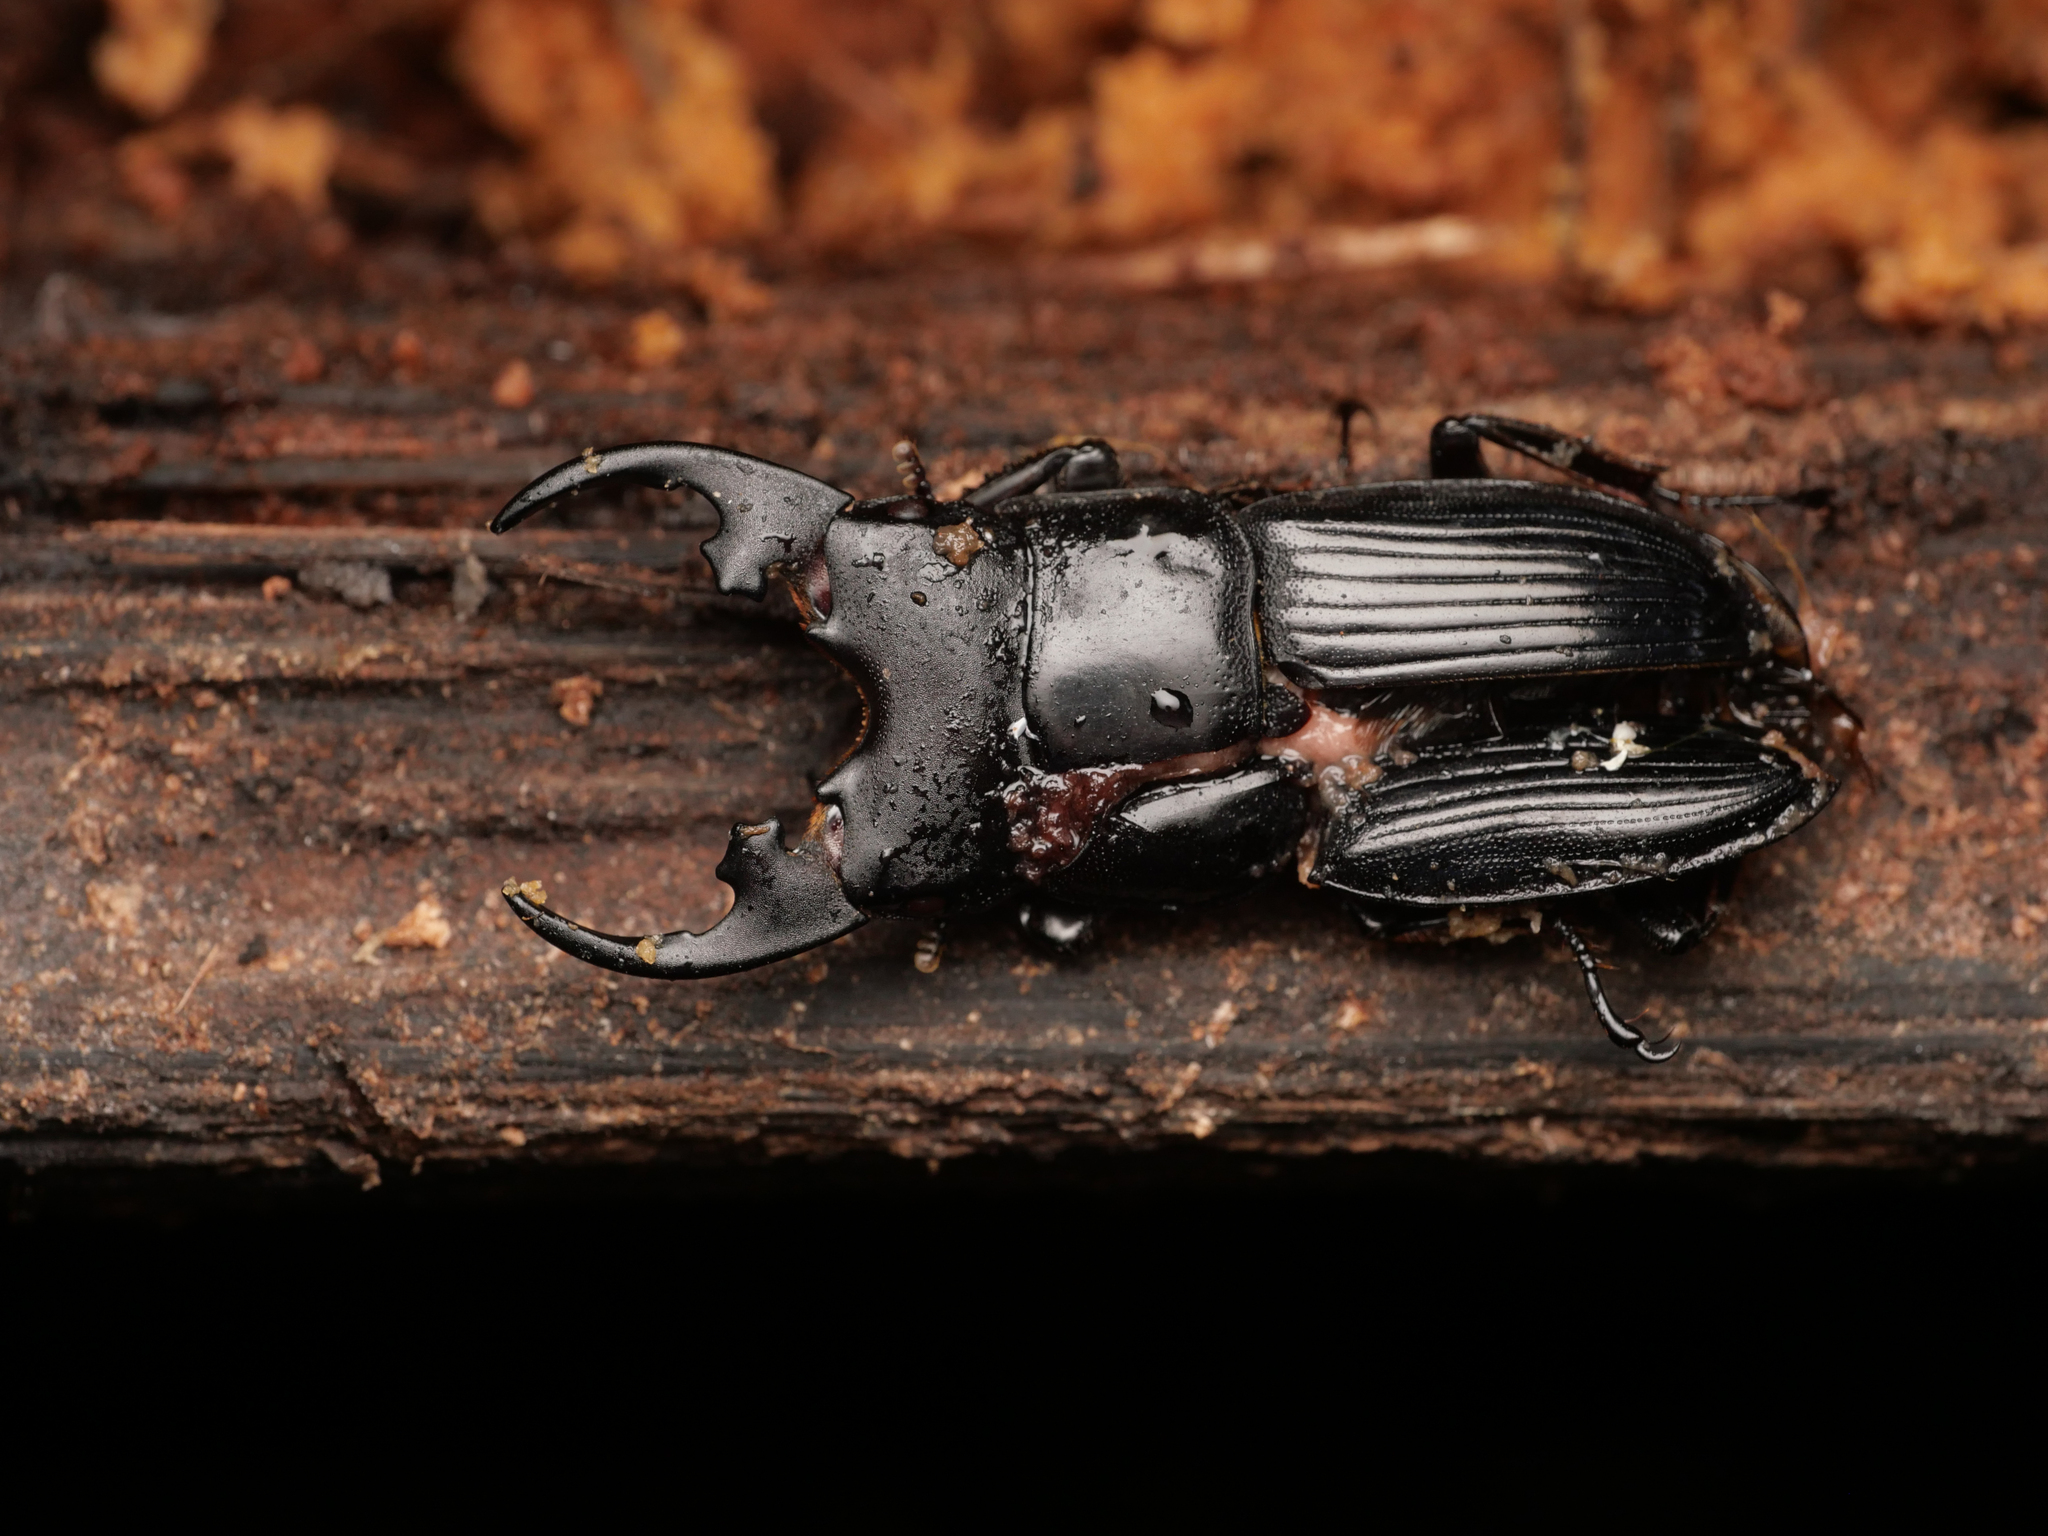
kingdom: Animalia
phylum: Arthropoda
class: Insecta
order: Coleoptera
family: Lucanidae
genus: Aegus
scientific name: Aegus platyodon
